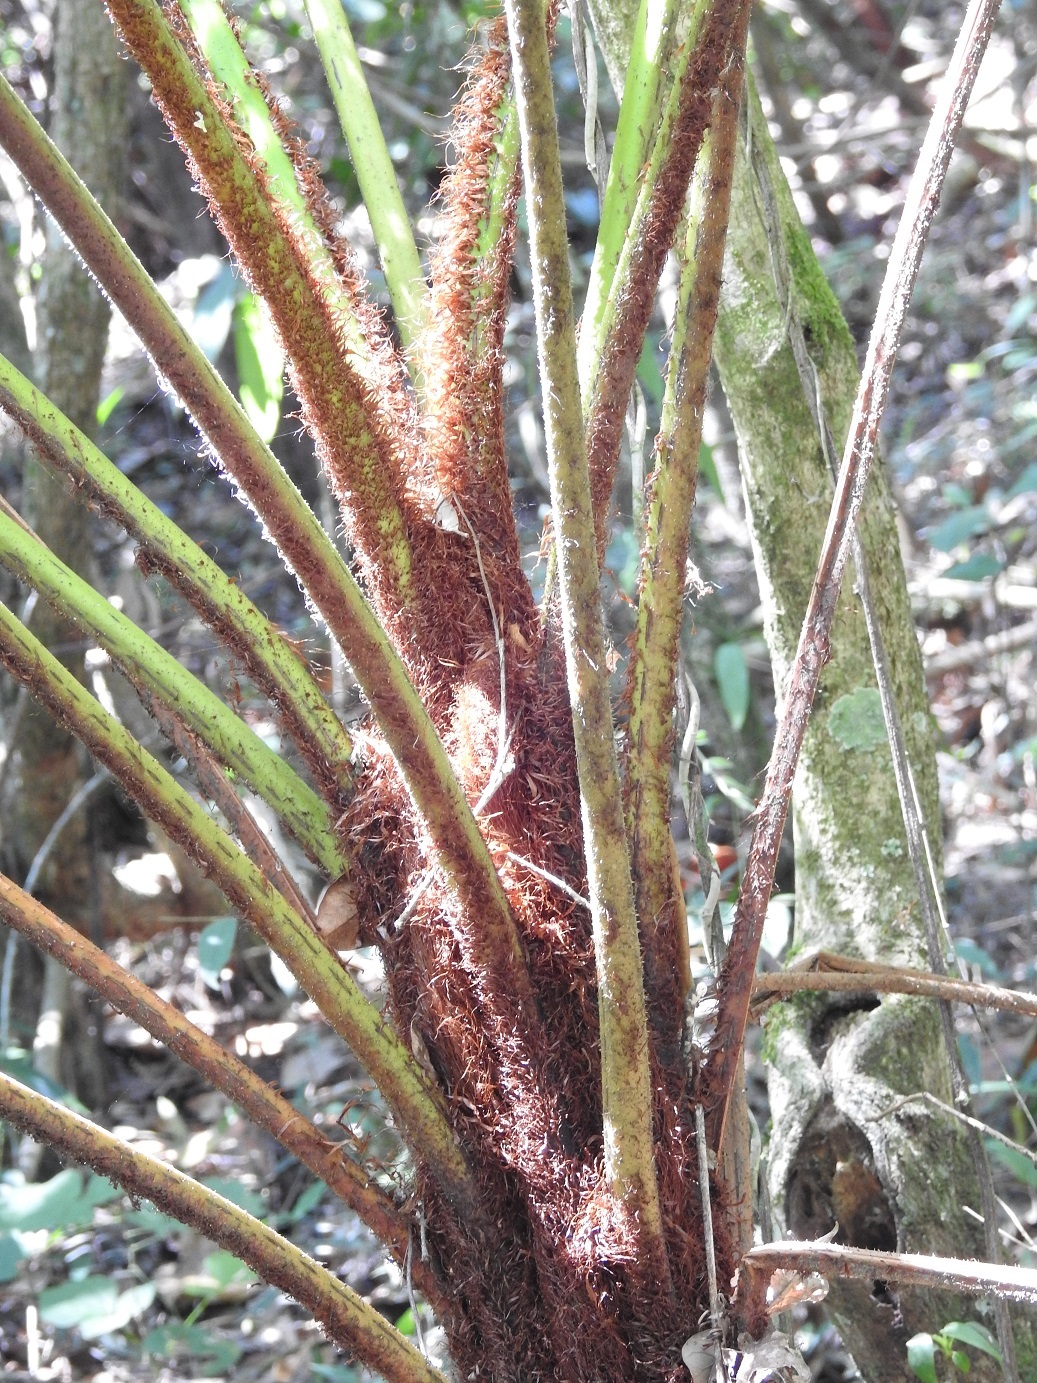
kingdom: Plantae
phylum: Tracheophyta
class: Polypodiopsida
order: Cyatheales
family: Cyatheaceae
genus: Sphaeropteris
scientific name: Sphaeropteris myosuroides
